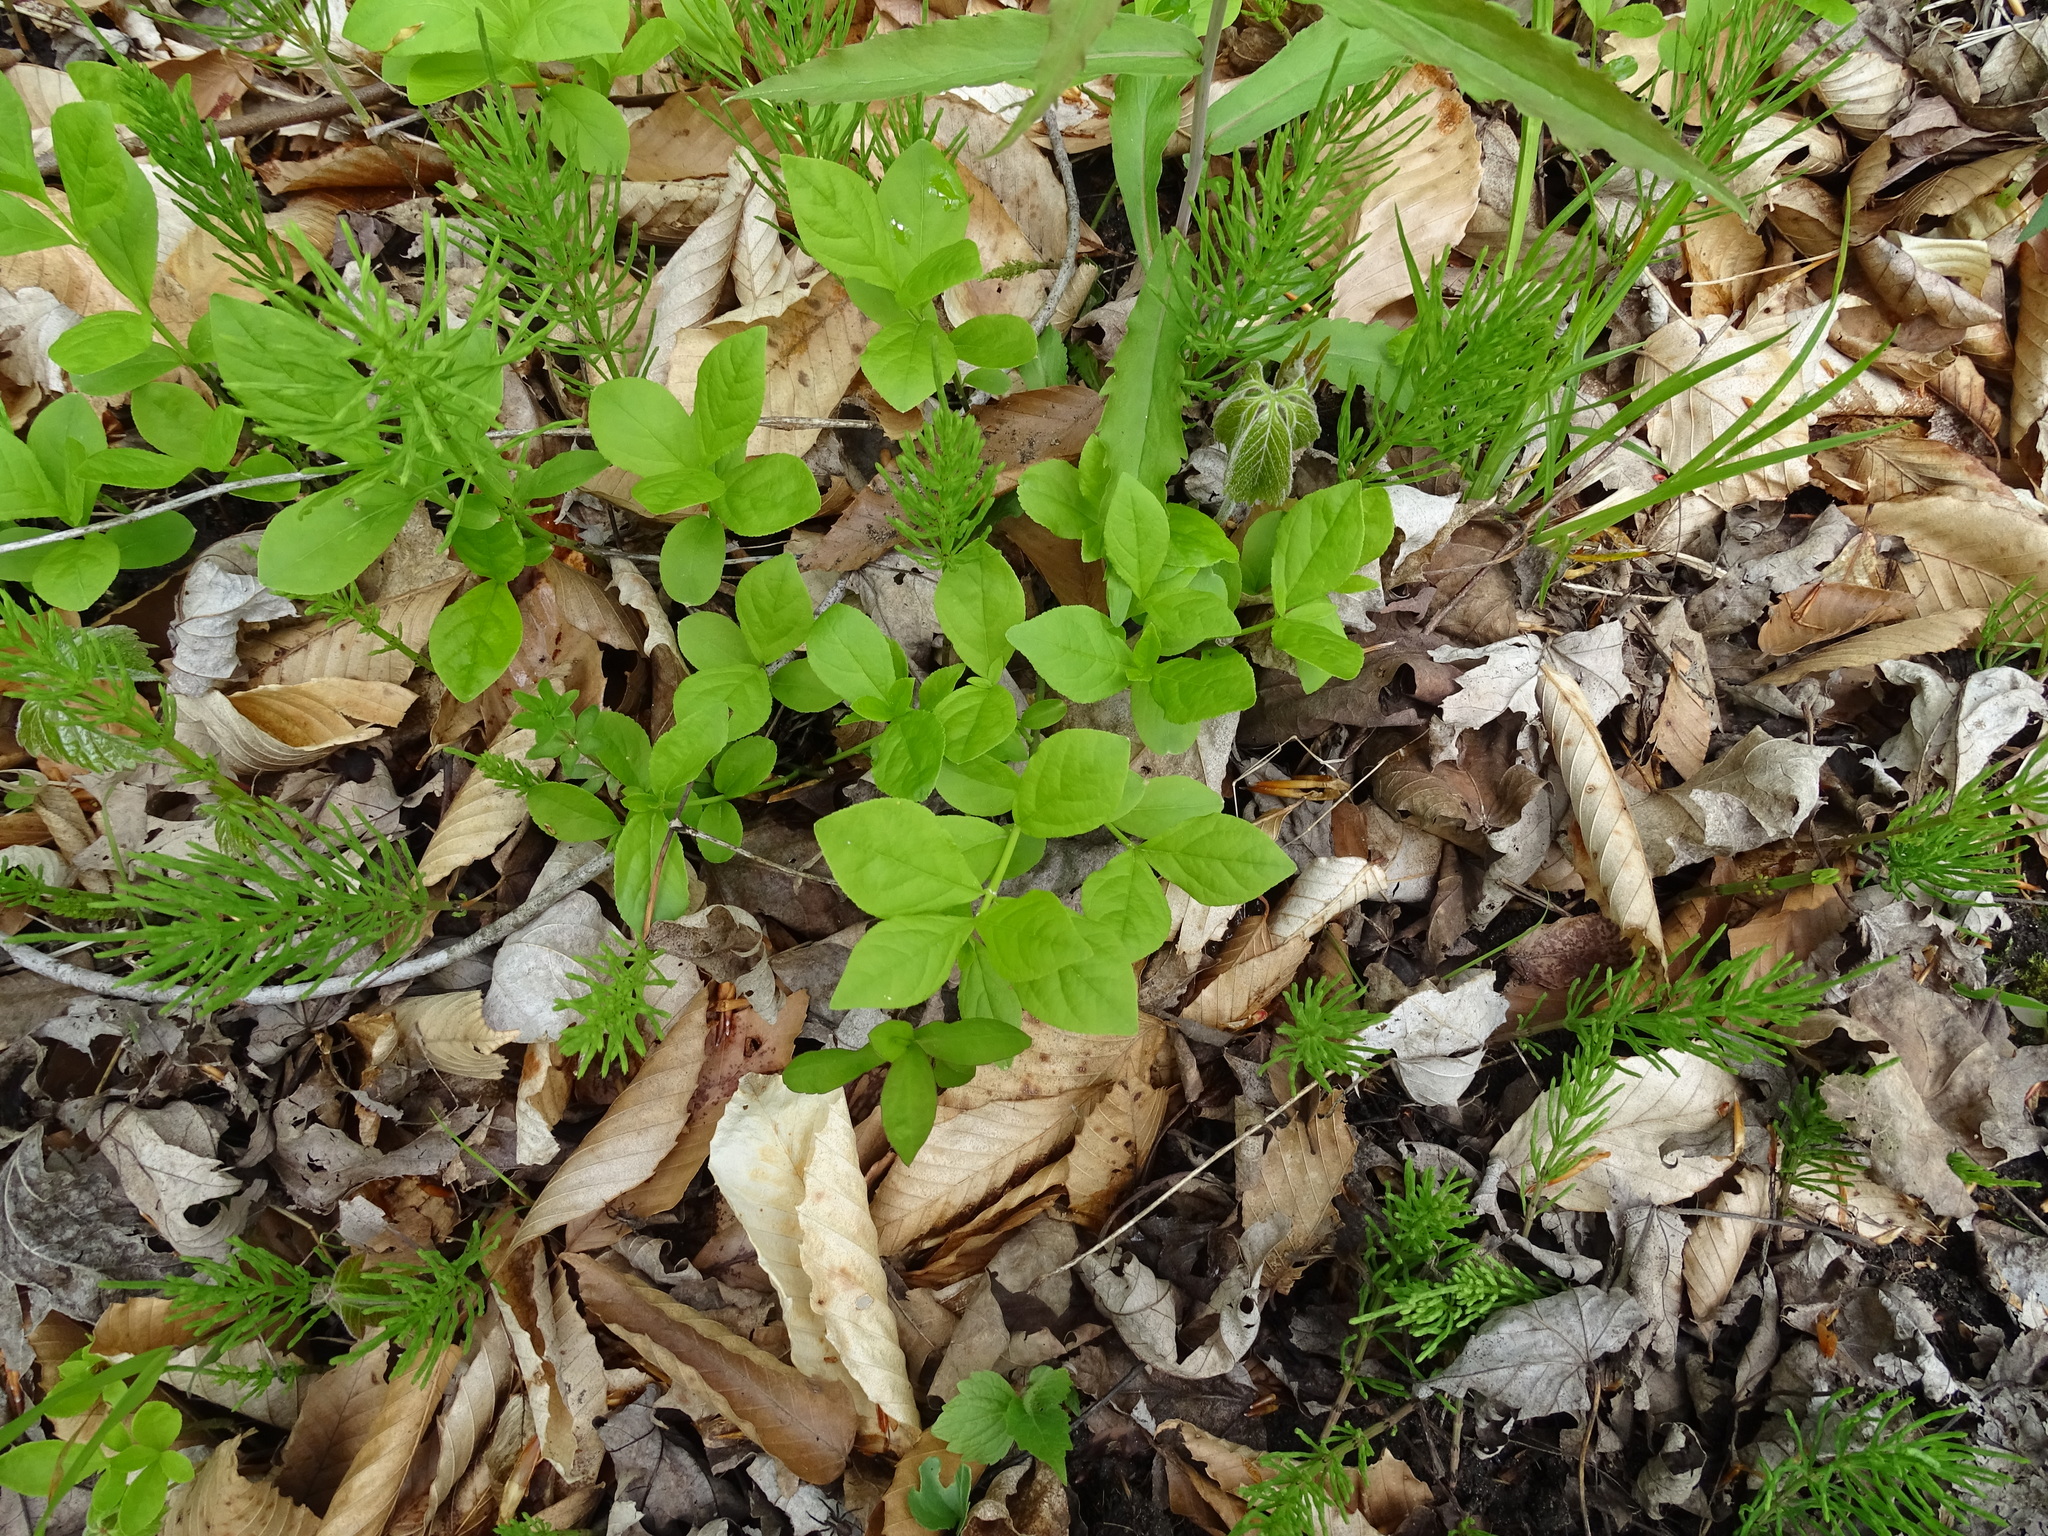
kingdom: Plantae
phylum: Tracheophyta
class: Magnoliopsida
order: Celastrales
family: Celastraceae
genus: Euonymus
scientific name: Euonymus obovatus
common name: Running strawberry-bush
